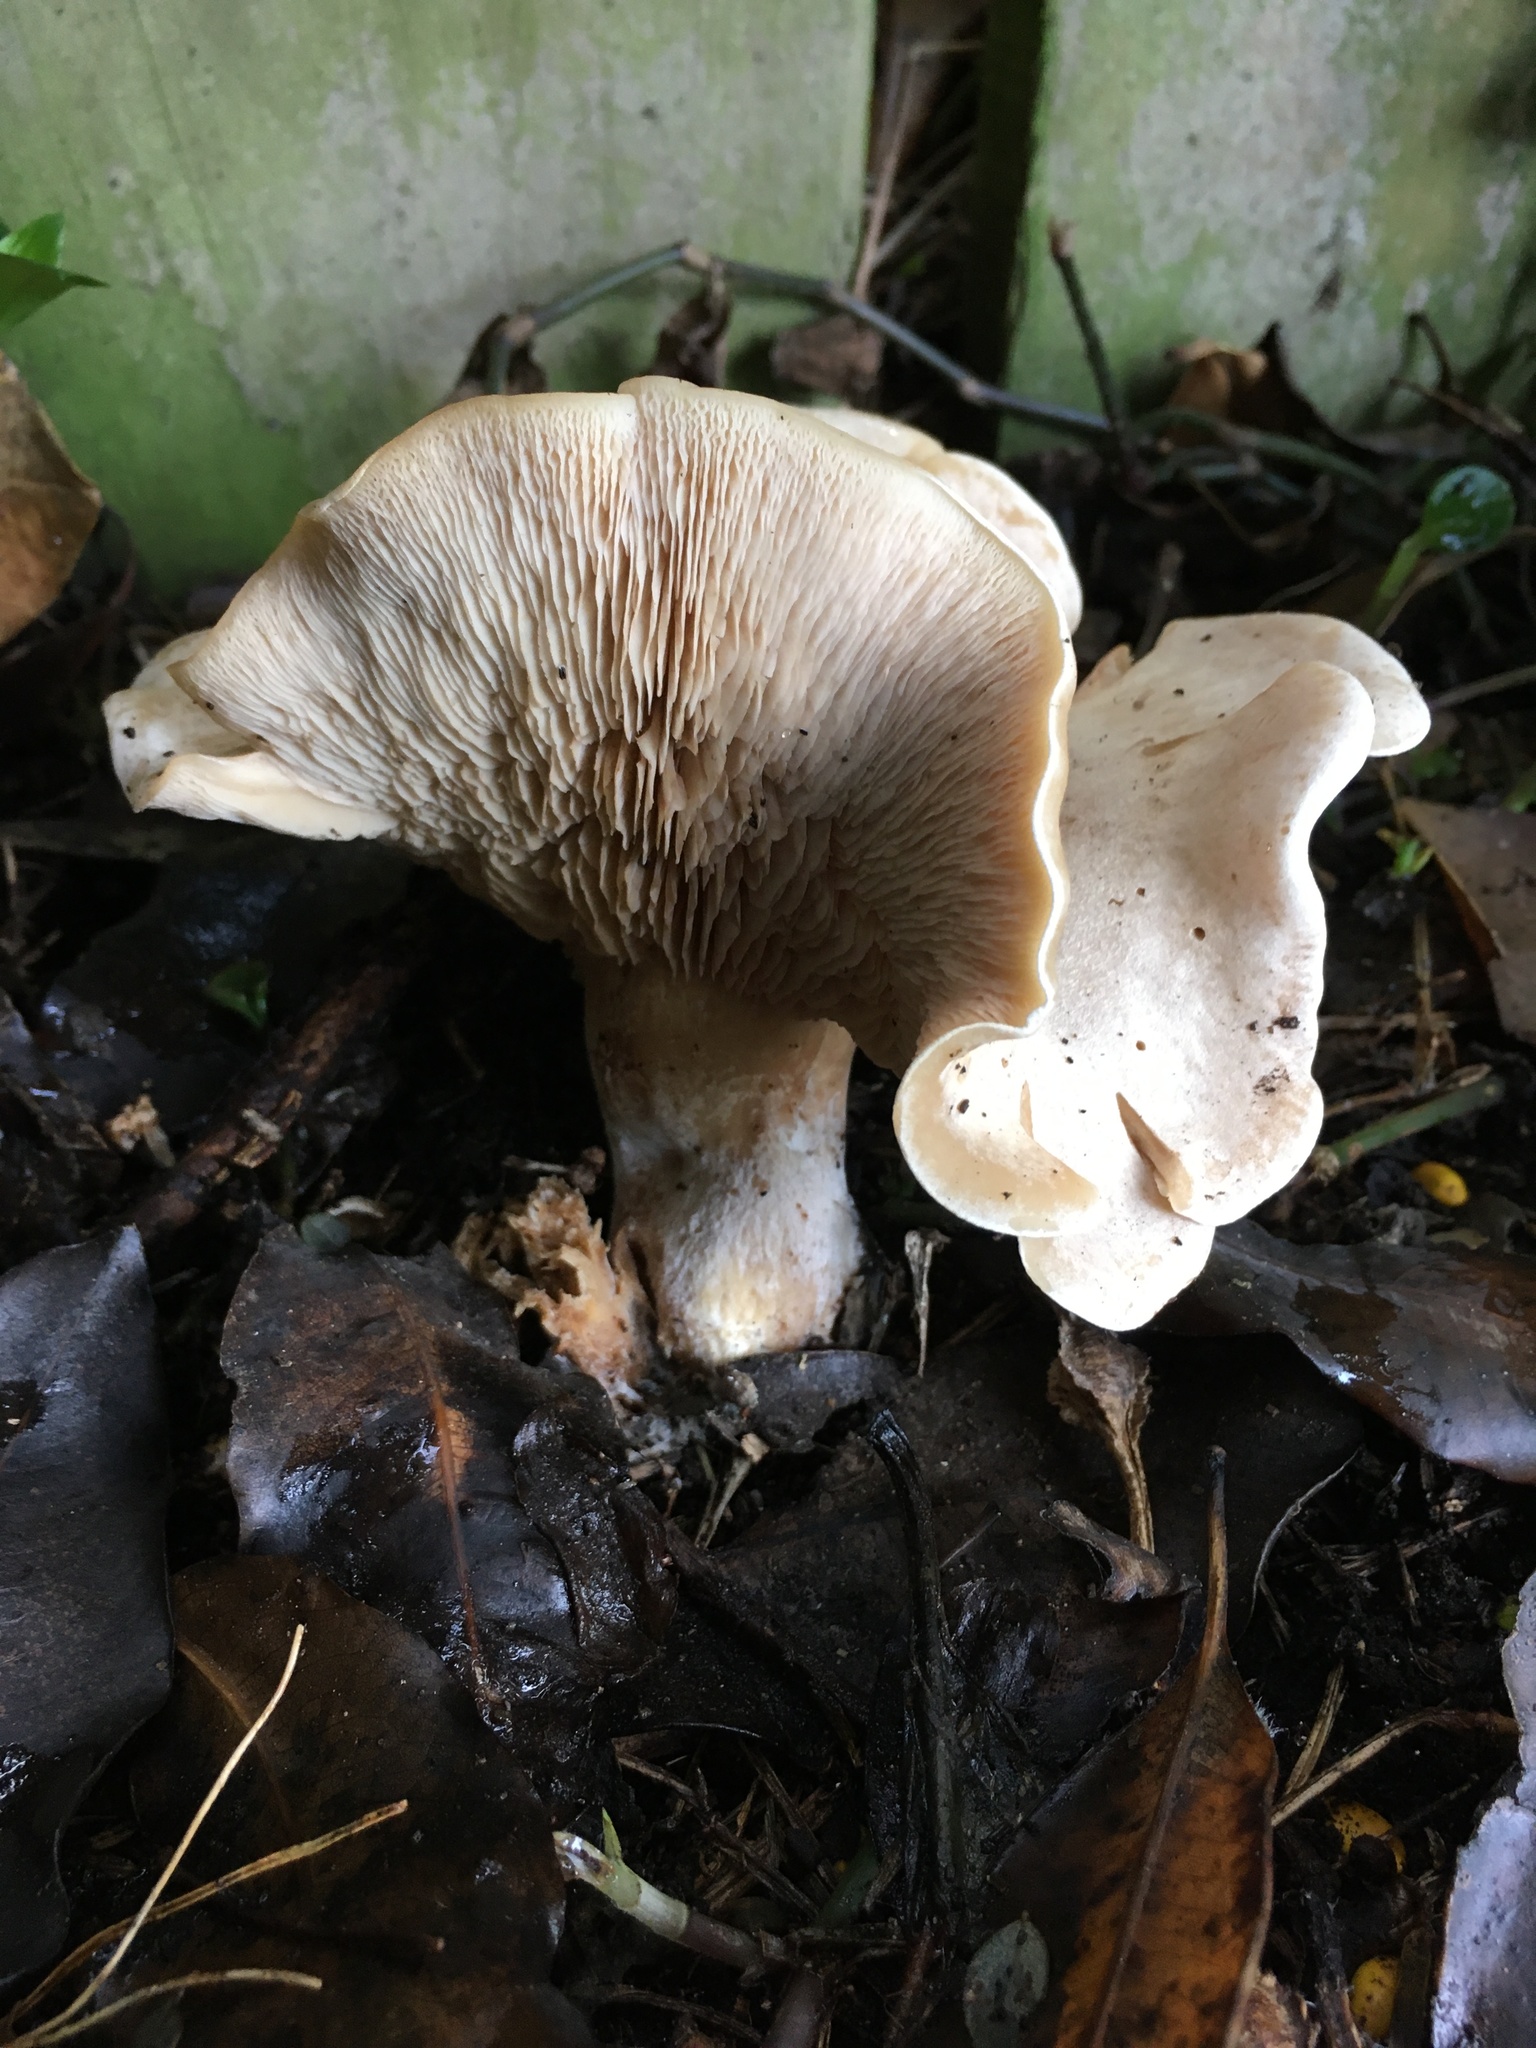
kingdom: Fungi
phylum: Basidiomycota
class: Agaricomycetes
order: Agaricales
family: Tricholomataceae
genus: Clitocybe
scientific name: Clitocybe nebularis
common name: Clouded agaric
